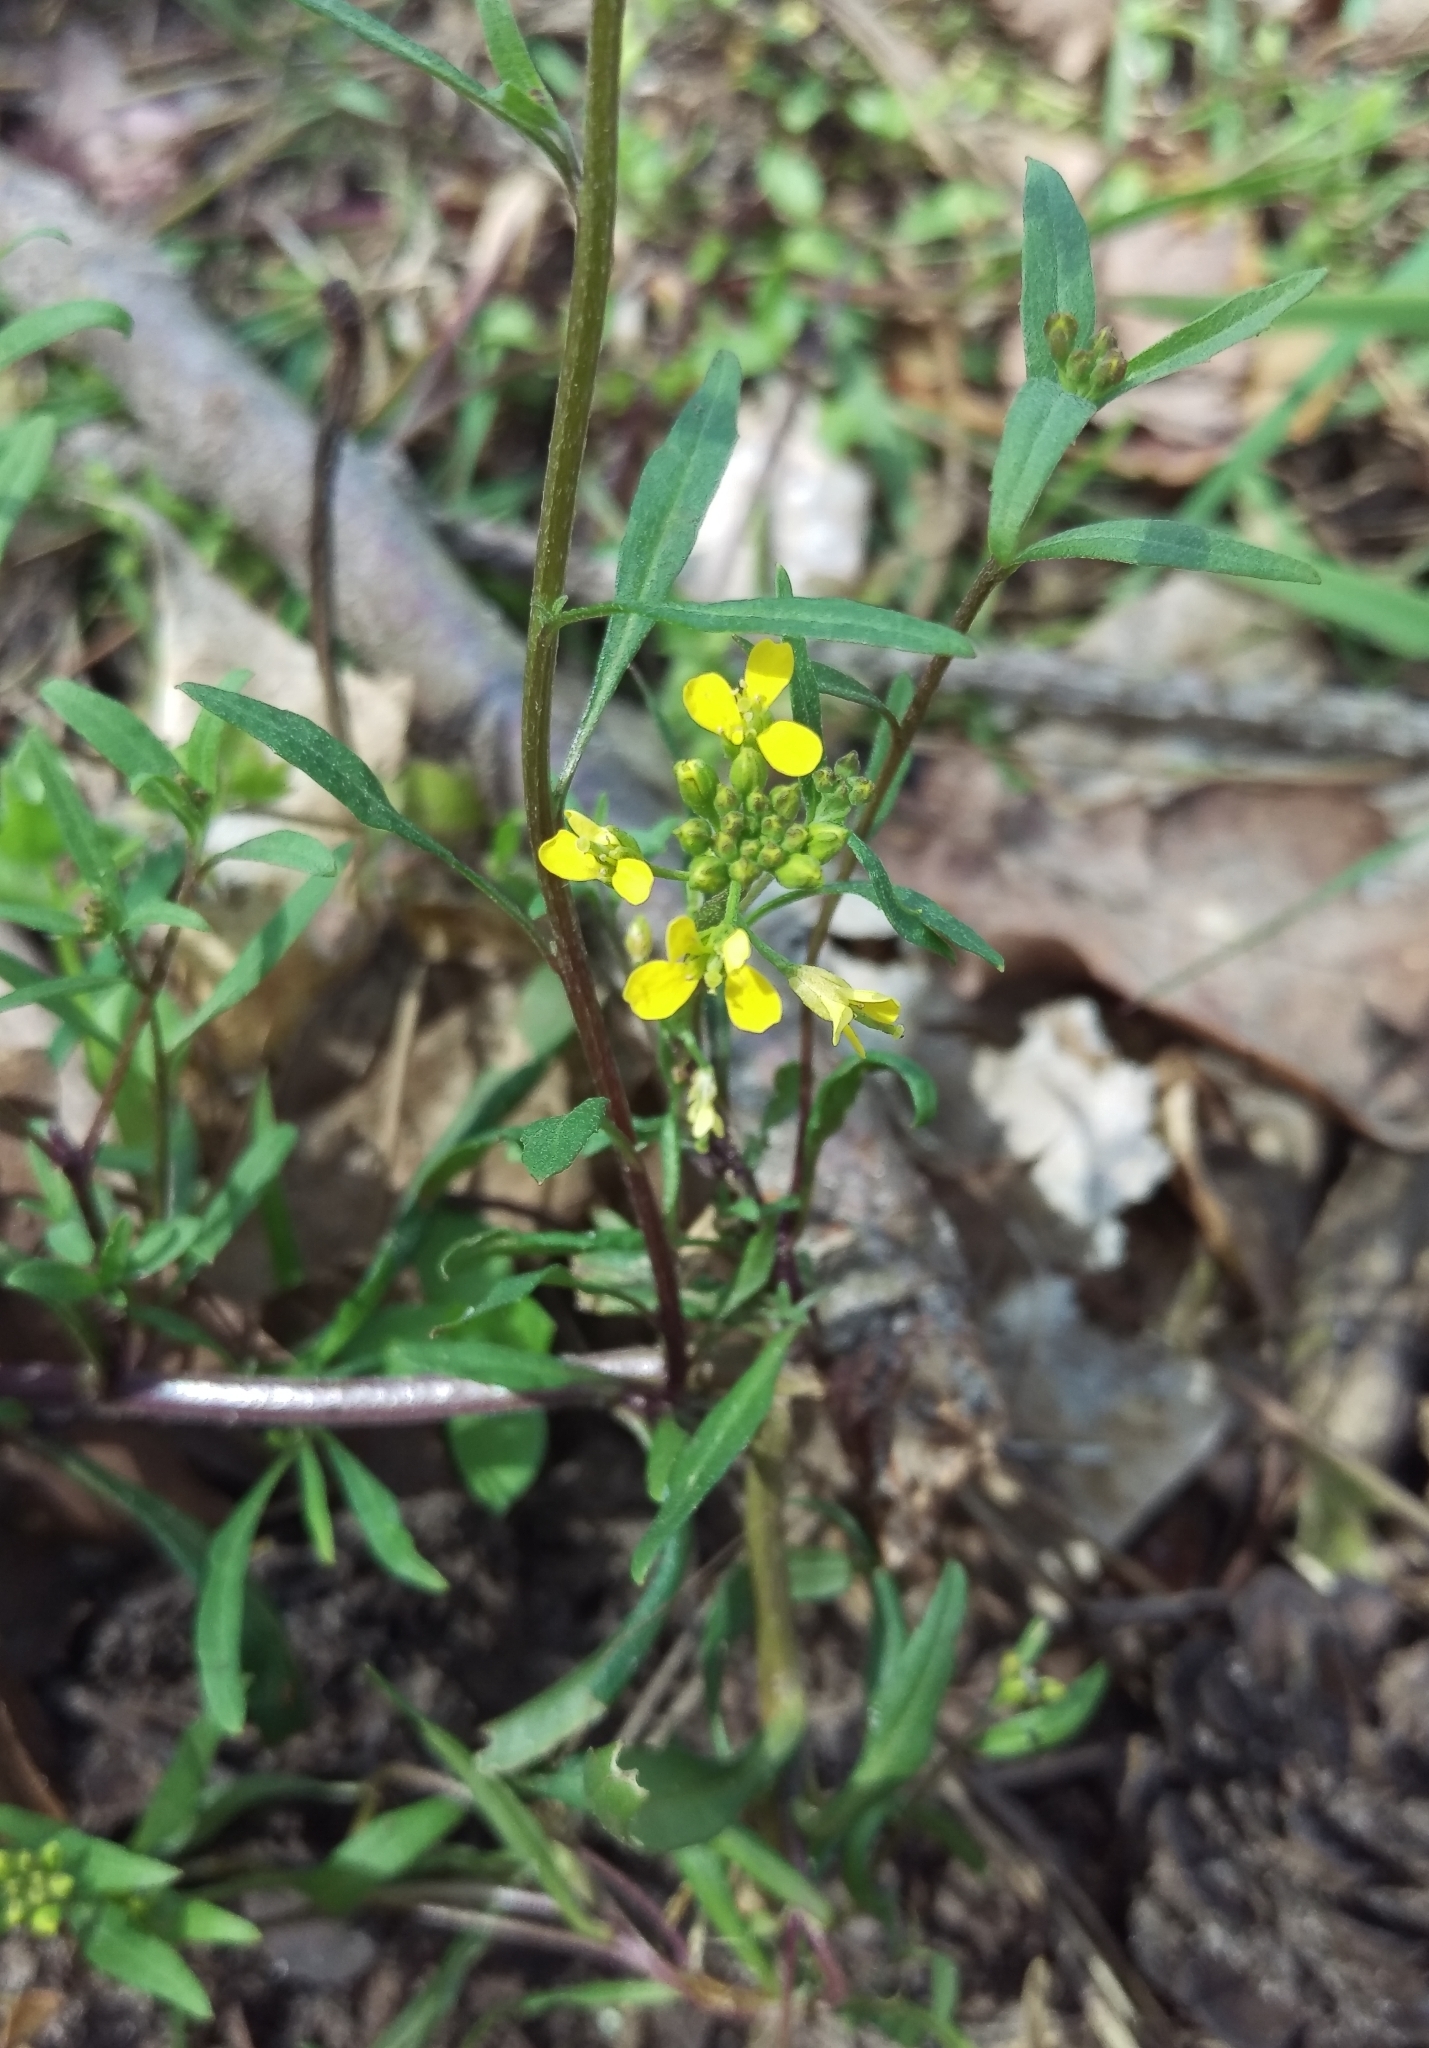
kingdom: Plantae
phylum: Tracheophyta
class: Magnoliopsida
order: Brassicales
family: Brassicaceae
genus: Erysimum
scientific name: Erysimum cheiranthoides
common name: Treacle mustard
